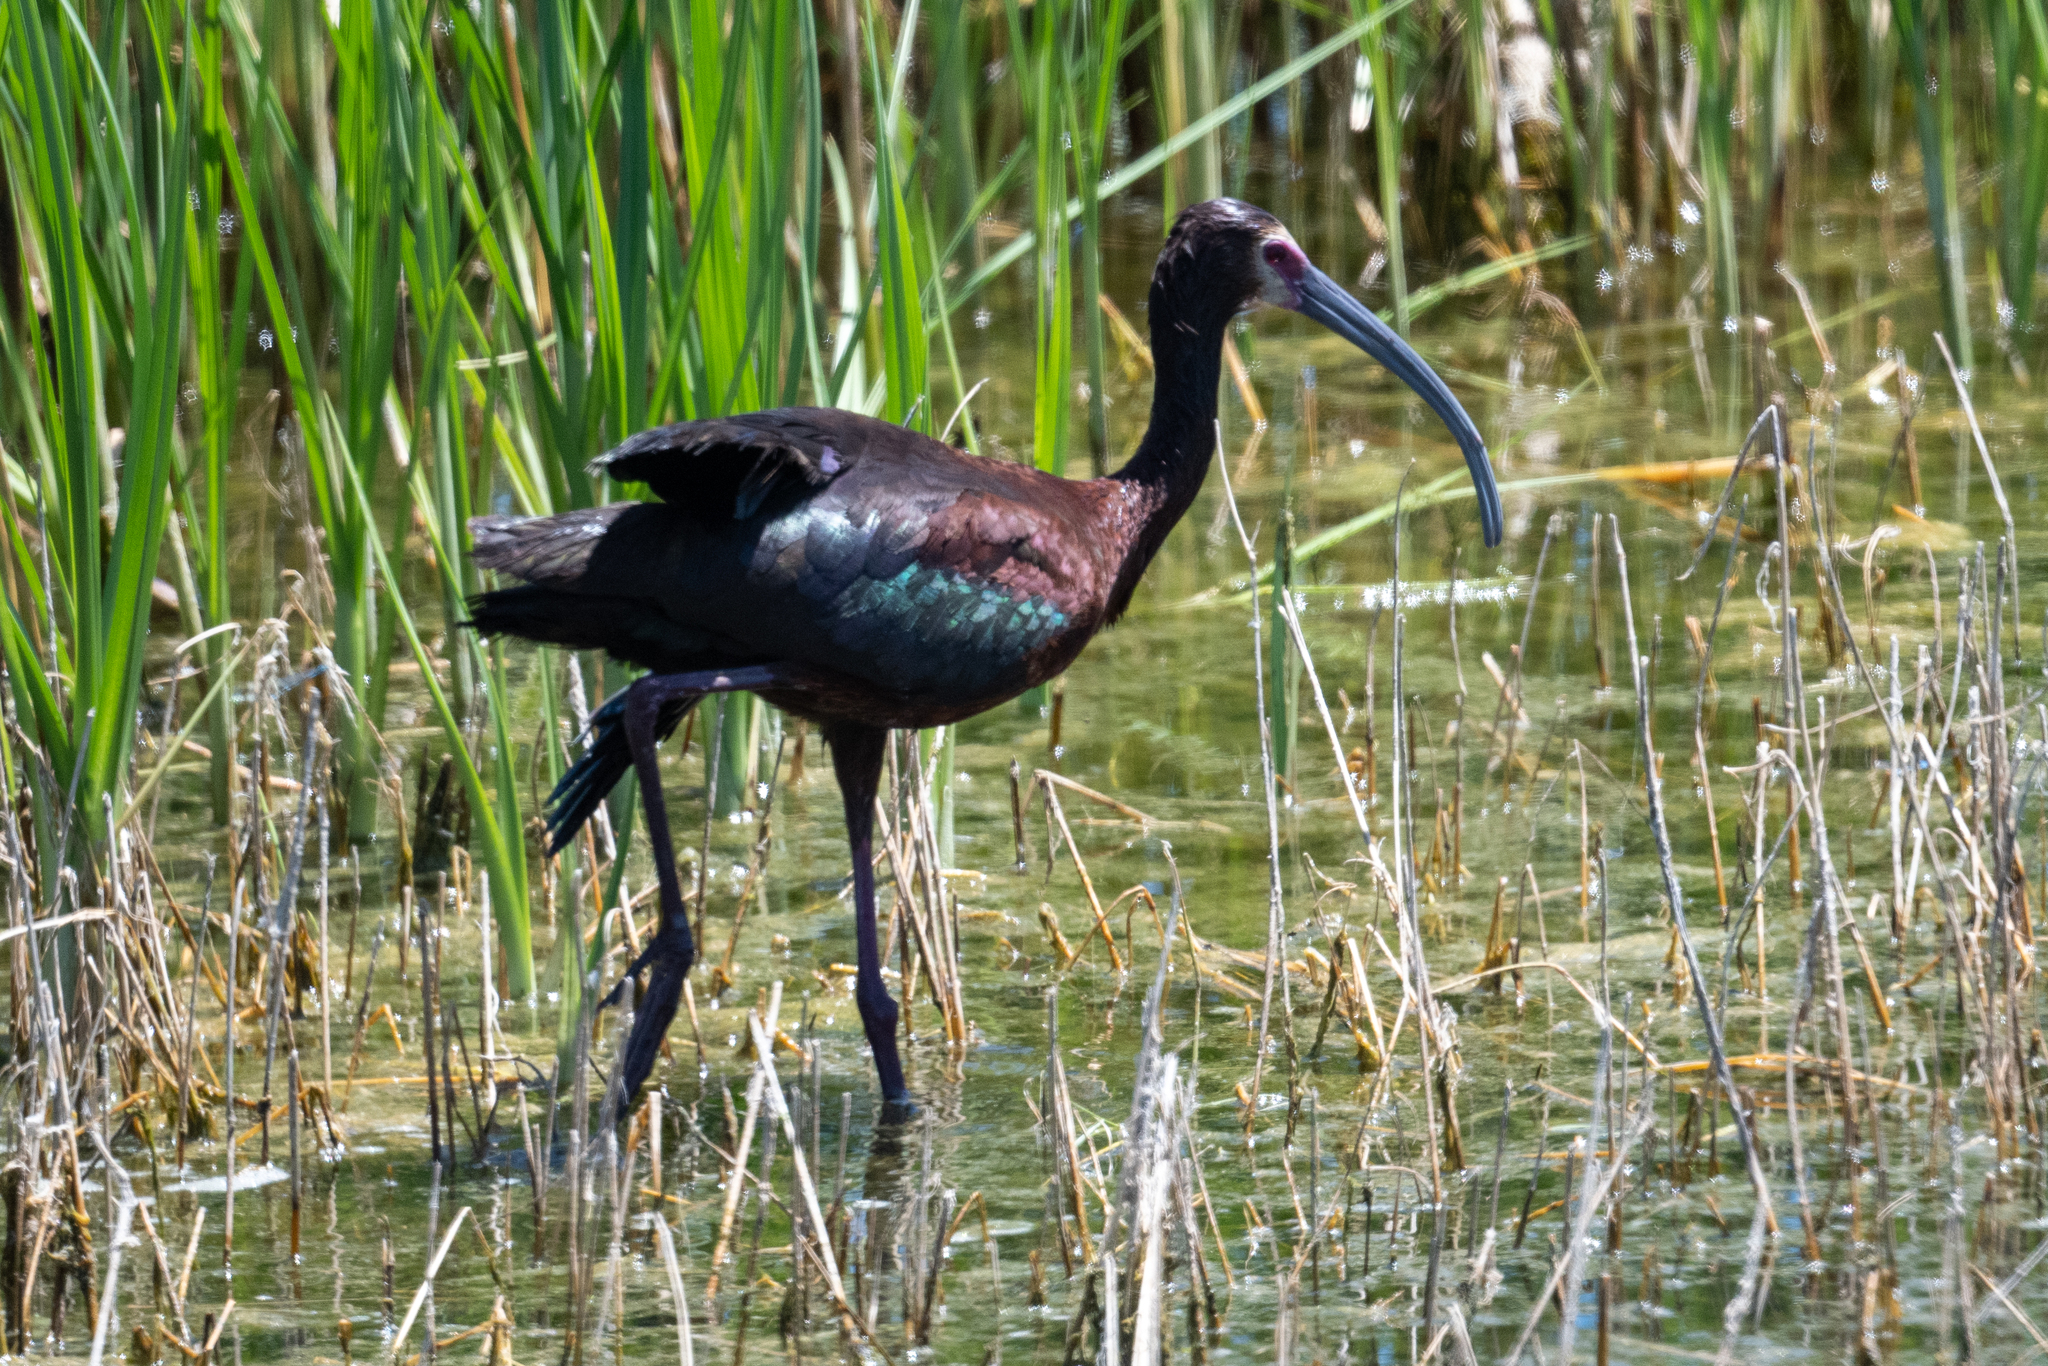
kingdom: Animalia
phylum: Chordata
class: Aves
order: Pelecaniformes
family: Threskiornithidae
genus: Plegadis
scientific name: Plegadis chihi
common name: White-faced ibis
